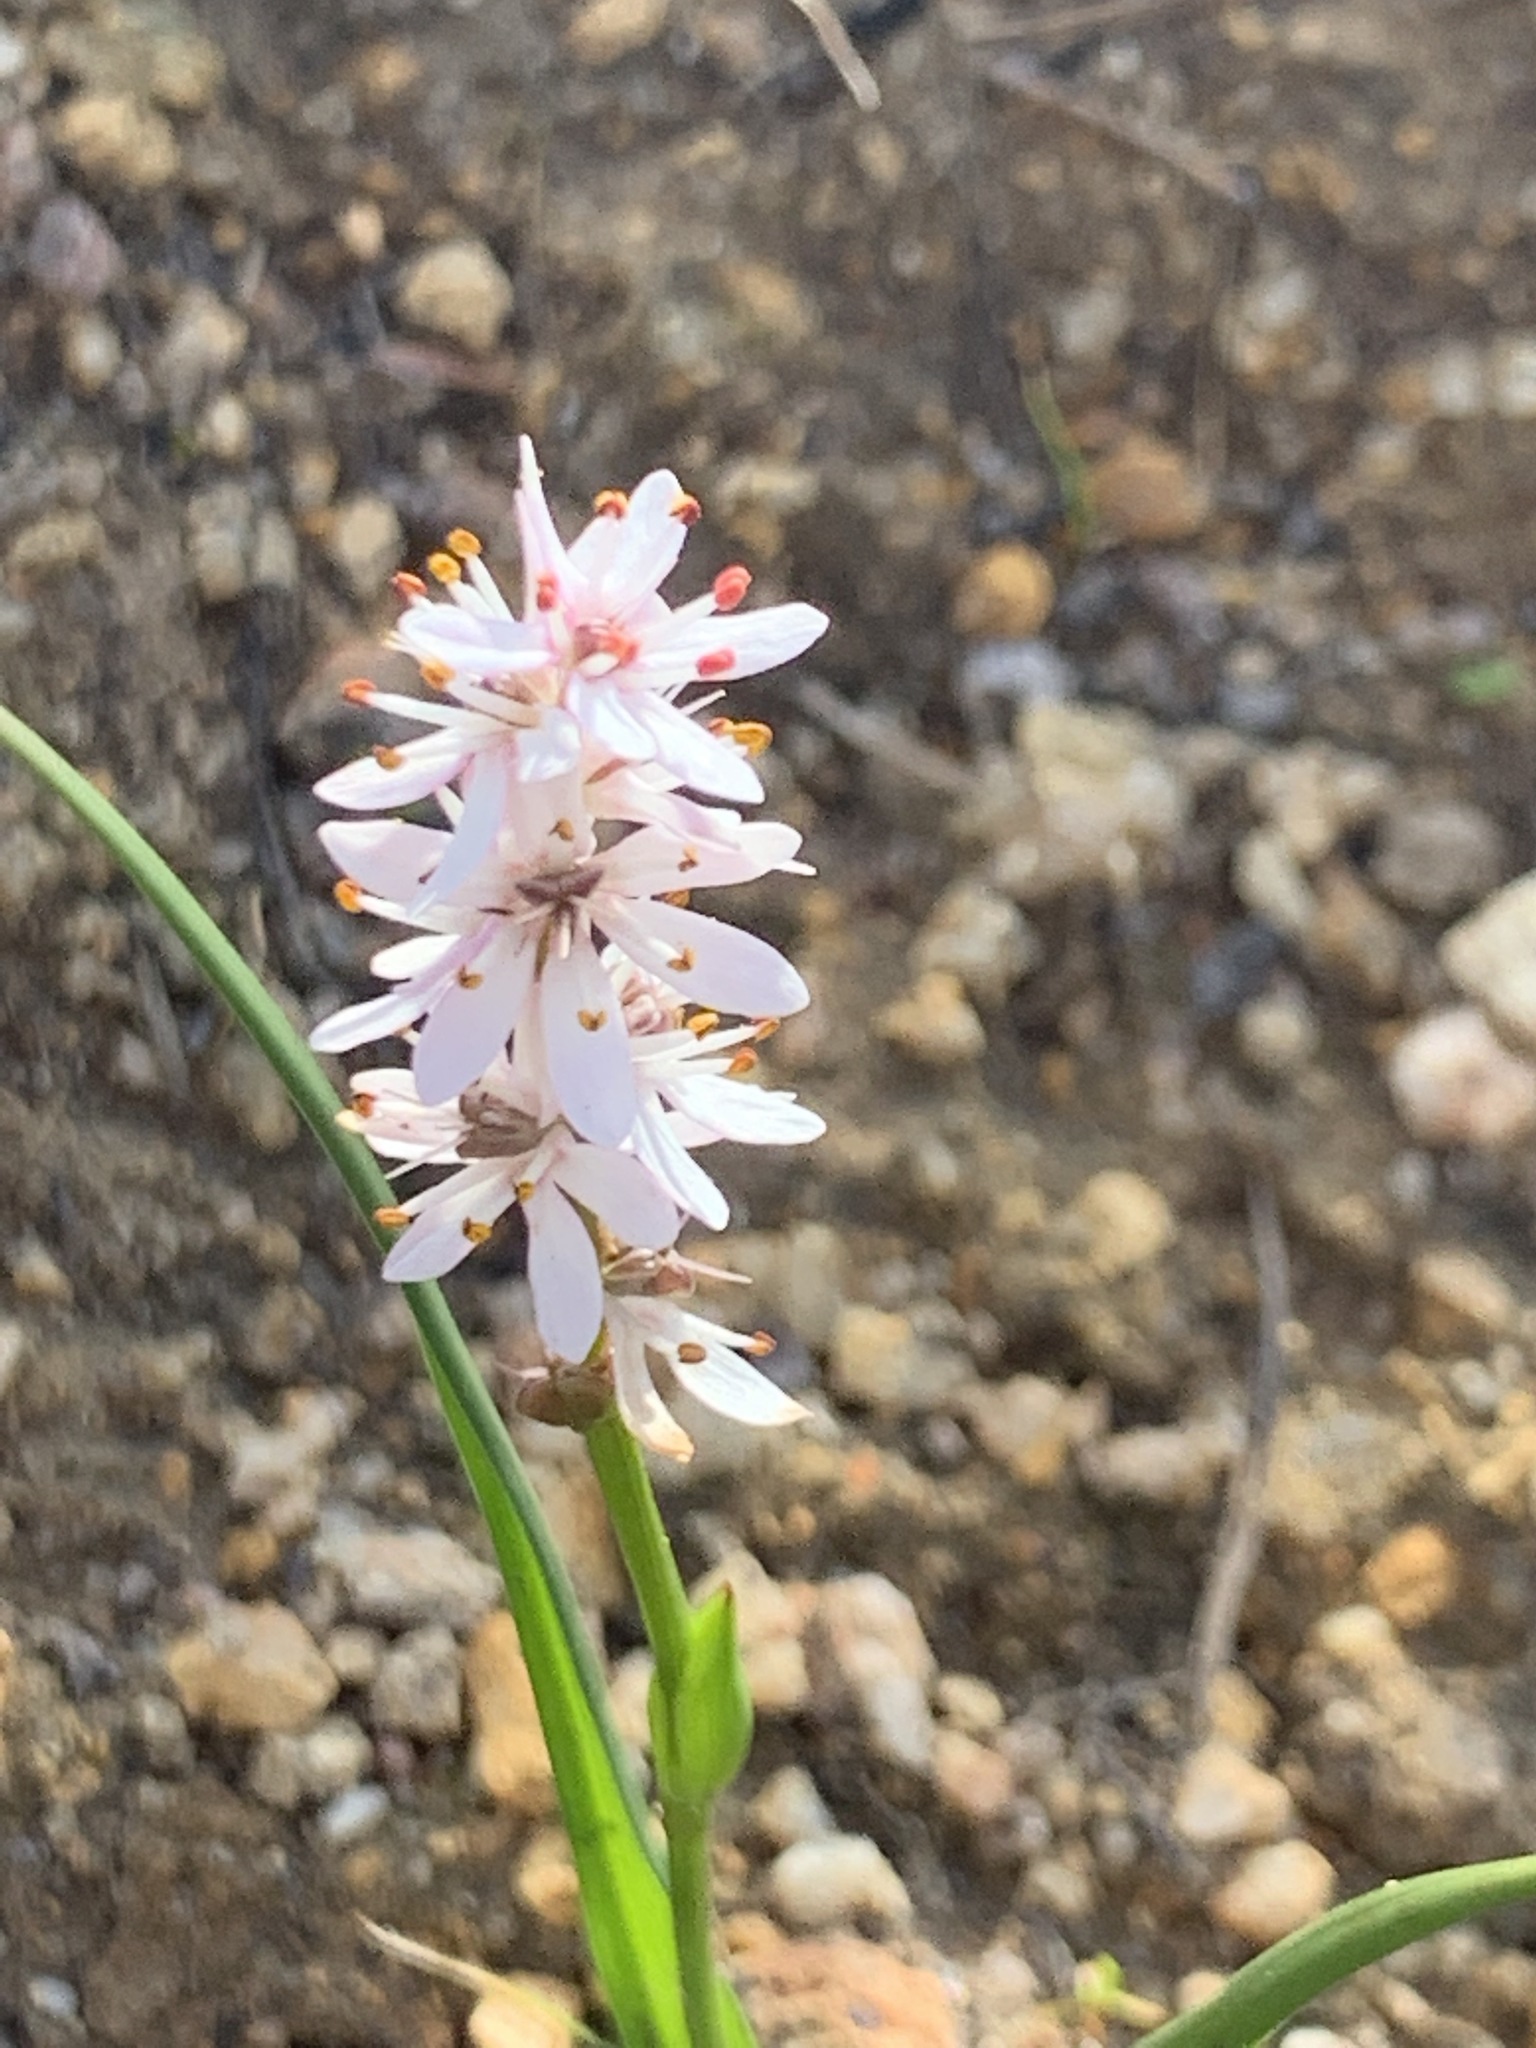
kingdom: Plantae
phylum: Tracheophyta
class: Liliopsida
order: Liliales
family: Colchicaceae
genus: Wurmbea
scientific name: Wurmbea punctata
